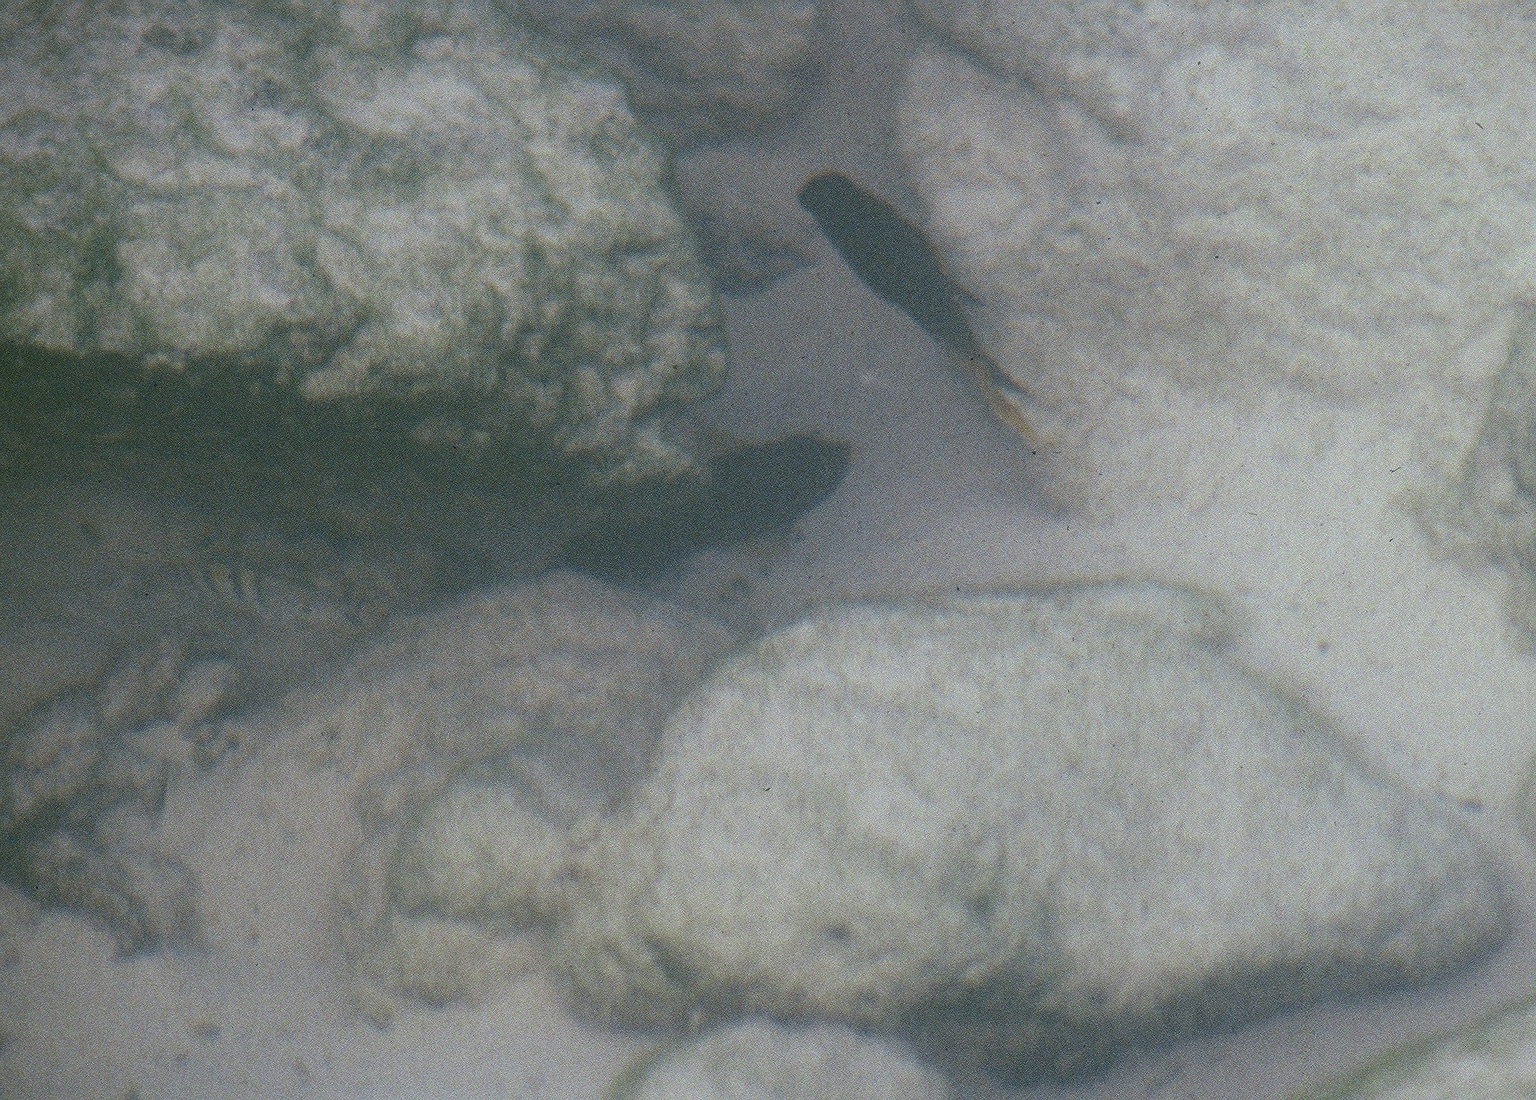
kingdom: Animalia
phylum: Chordata
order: Perciformes
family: Pomacentridae
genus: Abudefduf
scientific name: Abudefduf troschelii
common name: Panamic sergeant major
